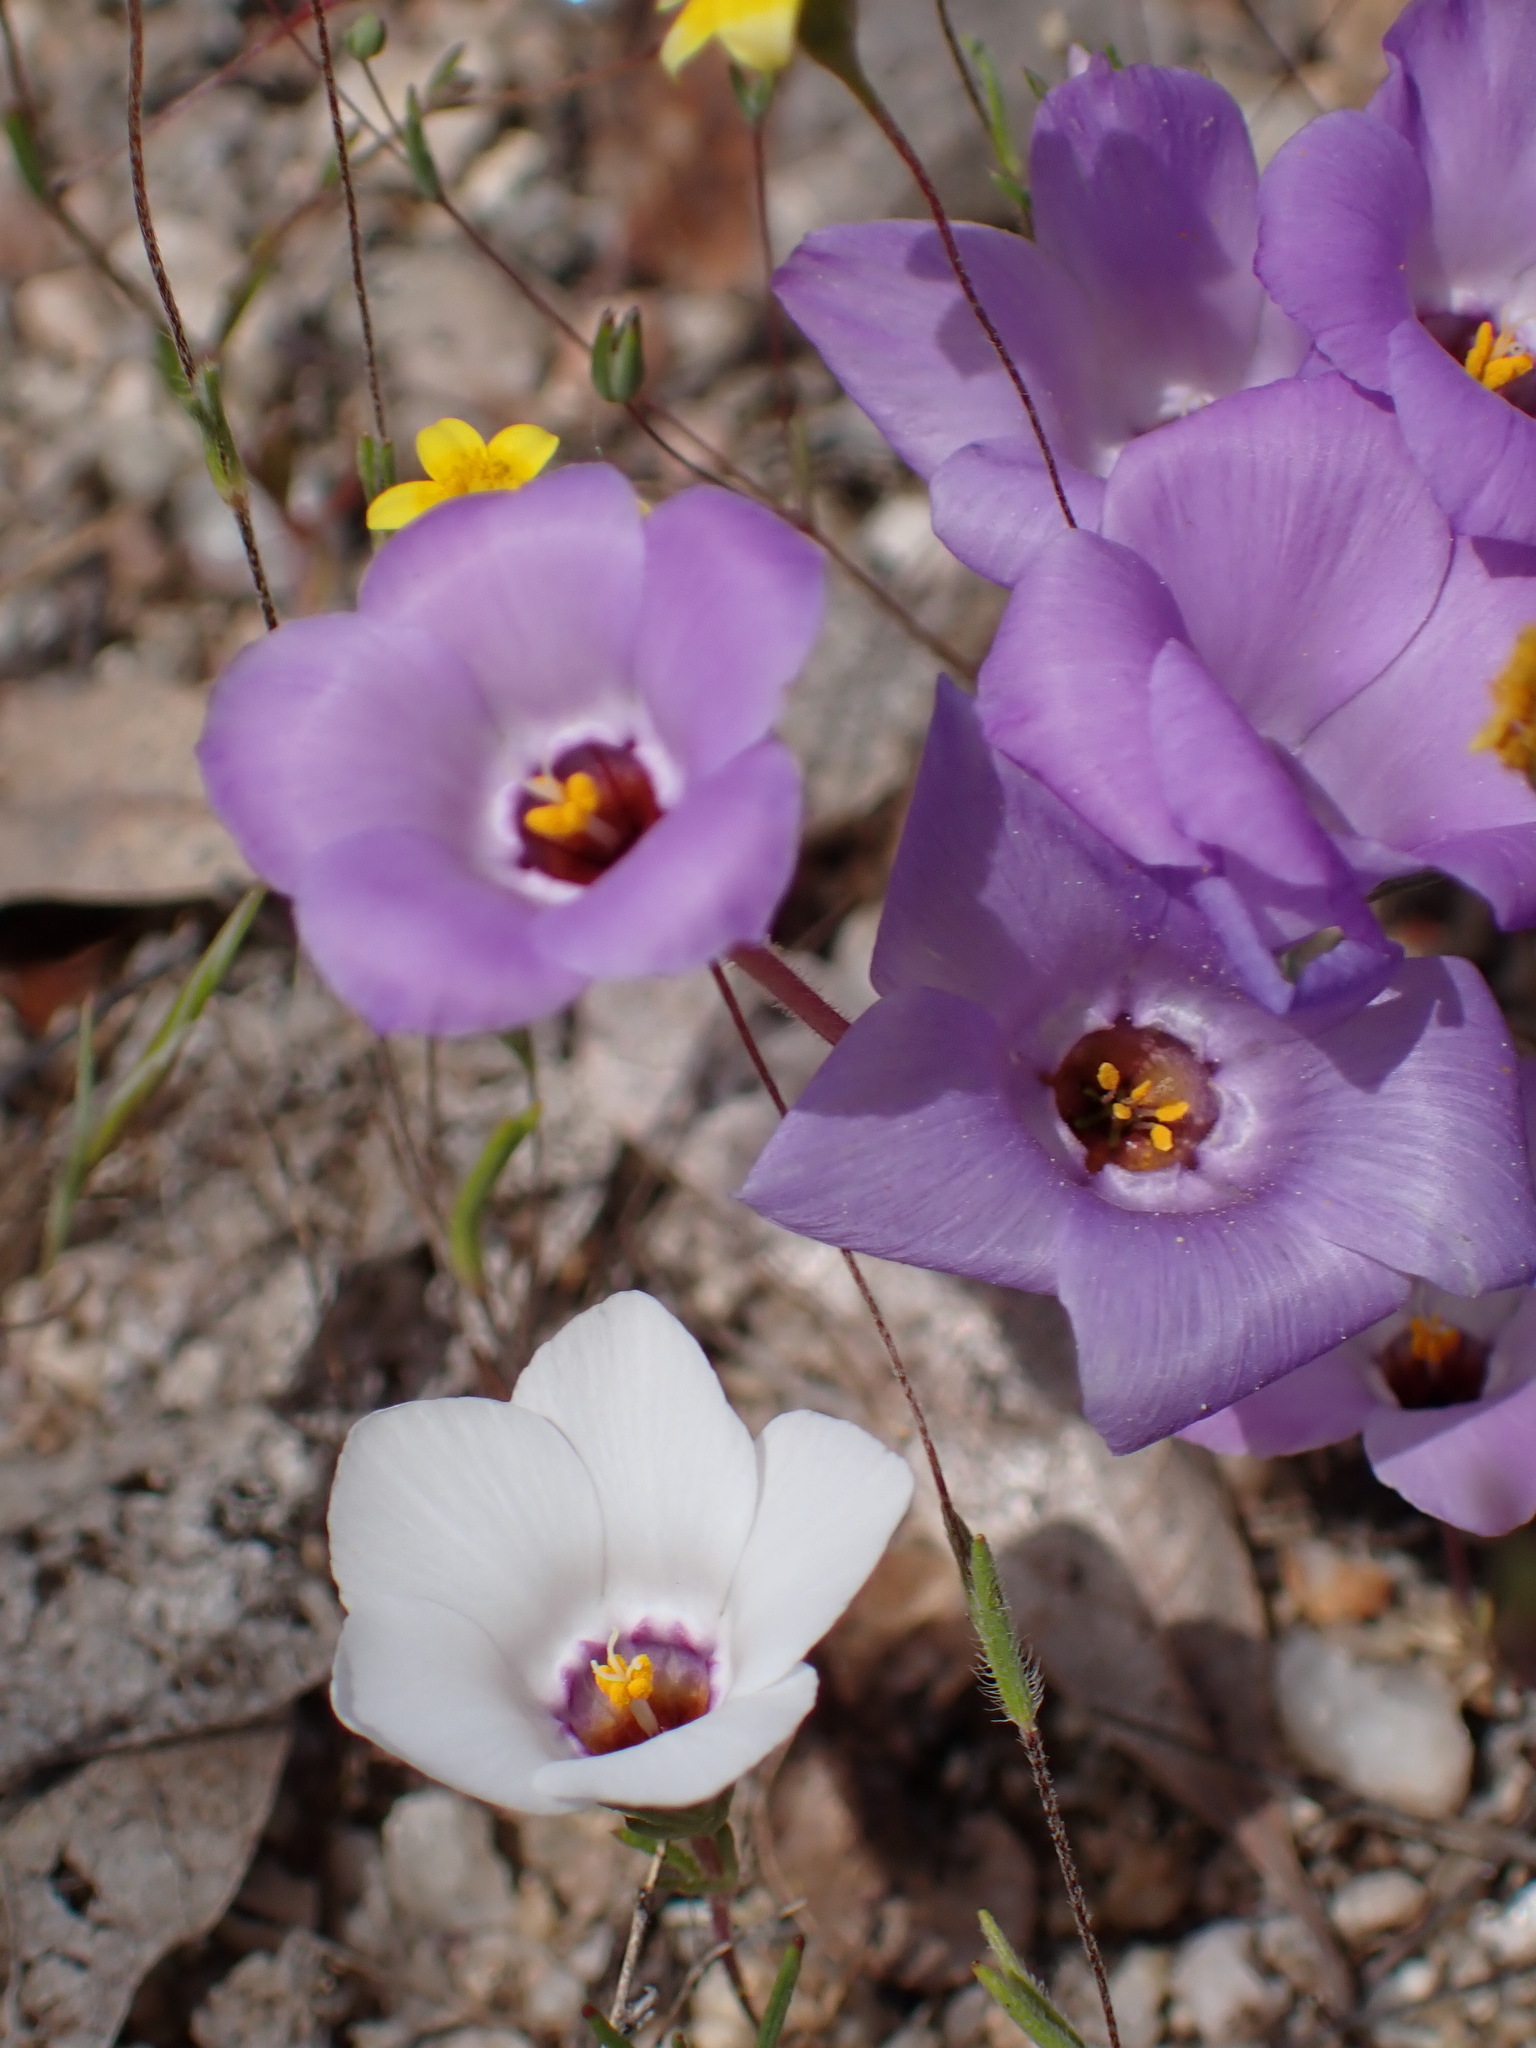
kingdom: Plantae
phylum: Tracheophyta
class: Magnoliopsida
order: Ericales
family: Polemoniaceae
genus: Linanthus
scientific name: Linanthus parryae
